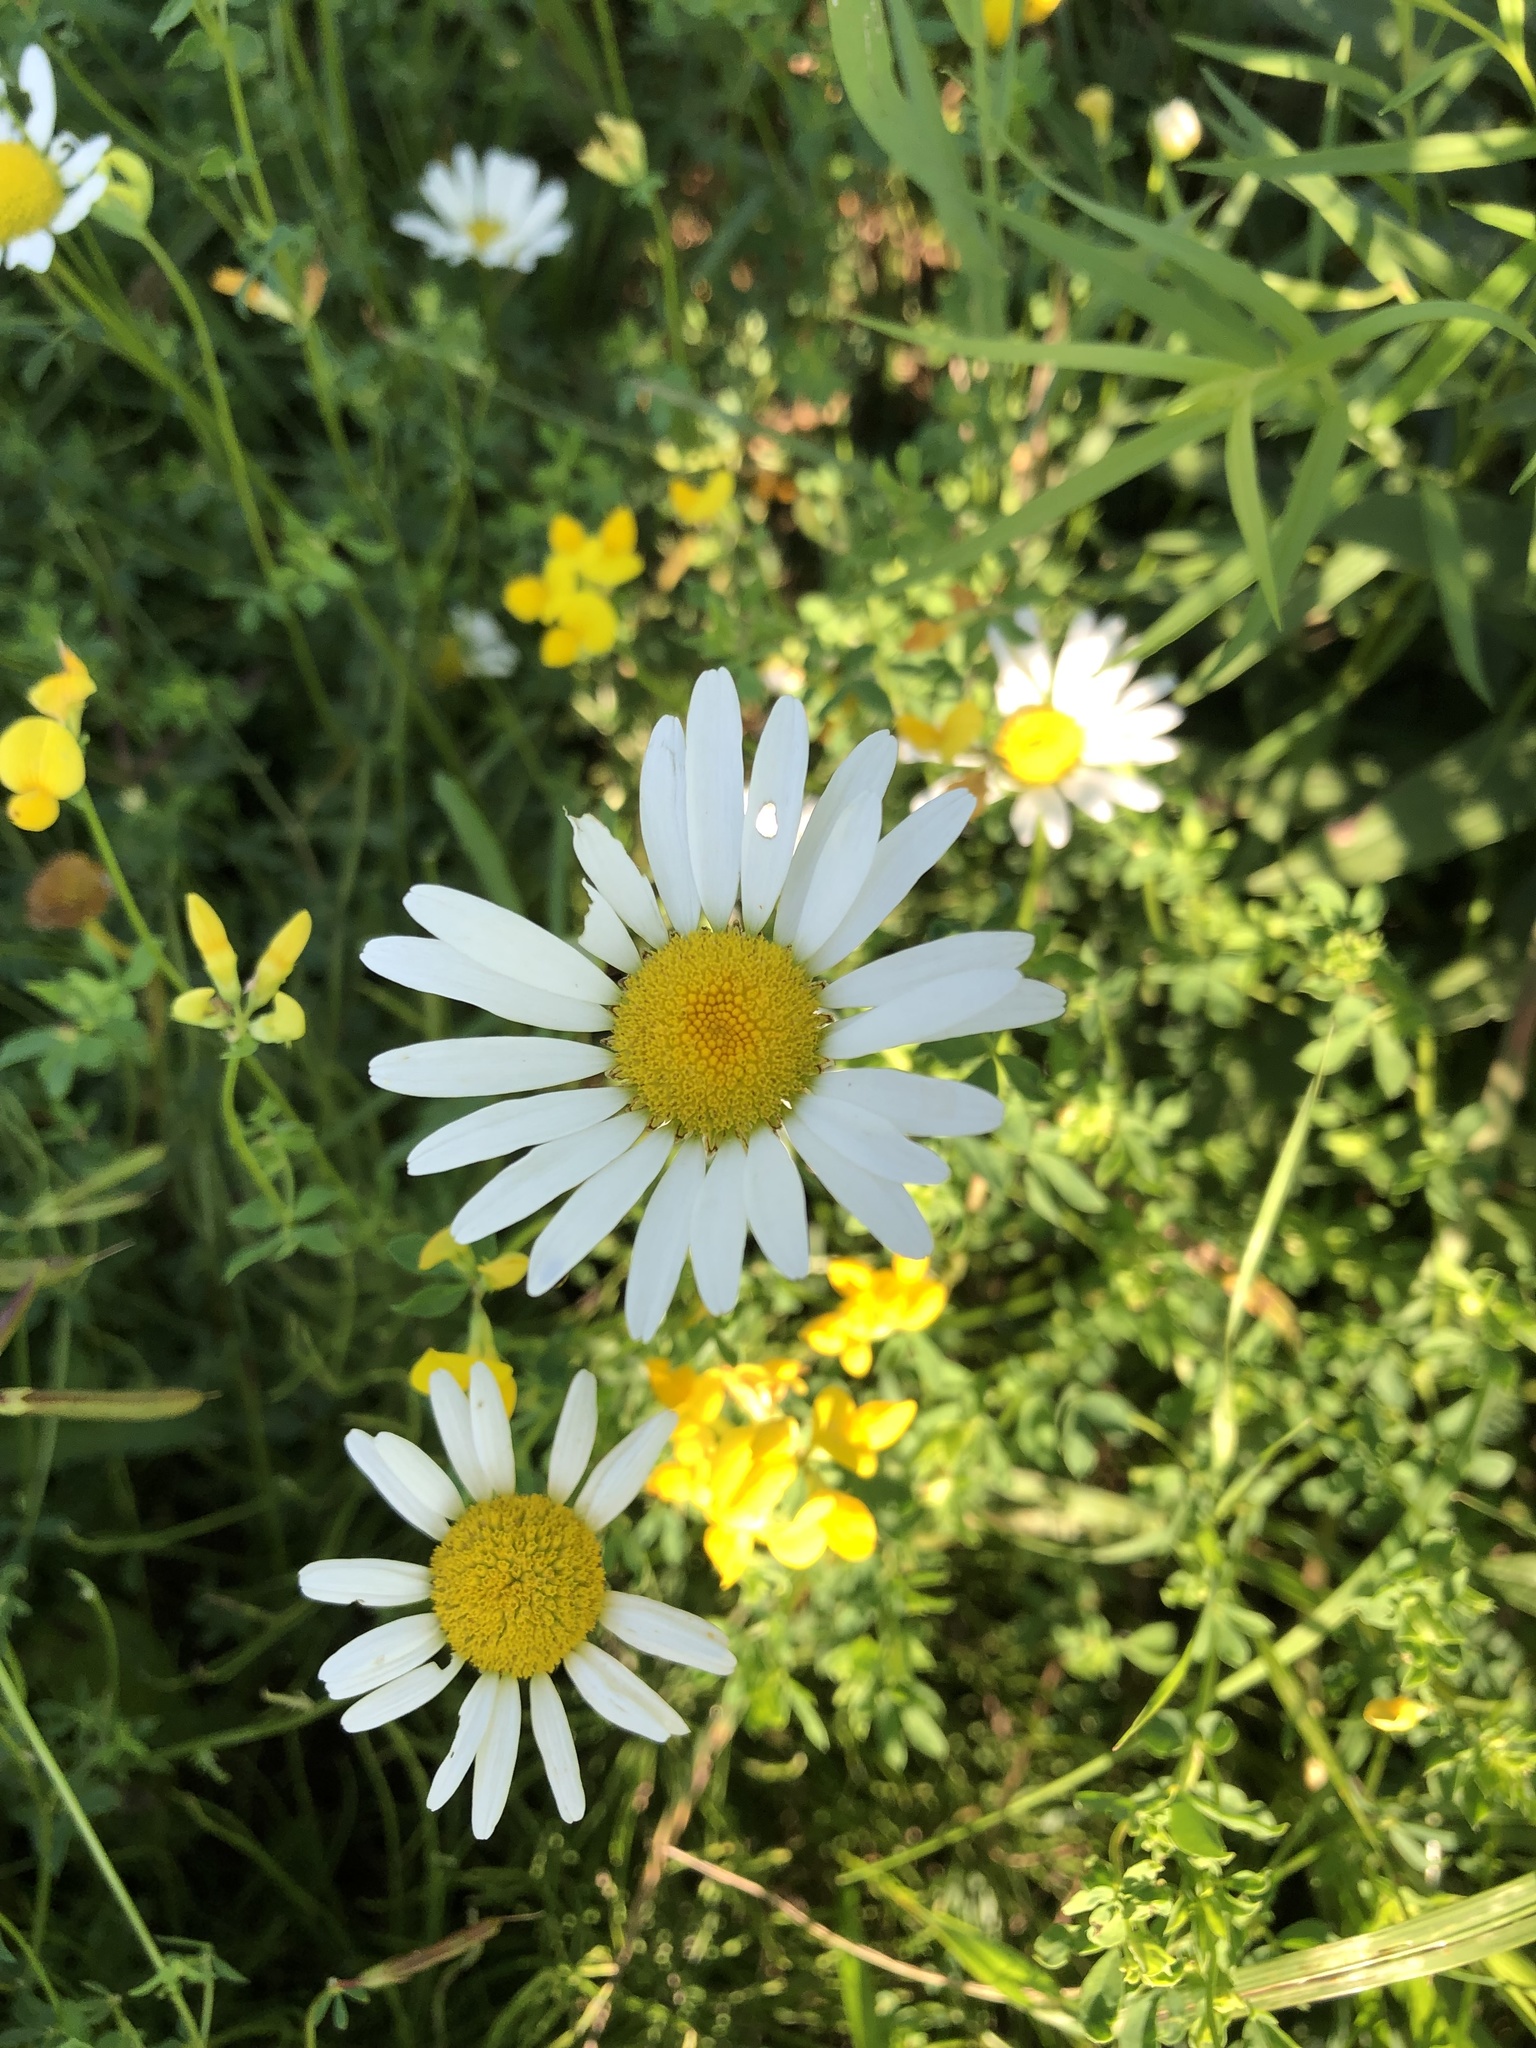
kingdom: Plantae
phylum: Tracheophyta
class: Magnoliopsida
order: Asterales
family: Asteraceae
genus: Leucanthemum
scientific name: Leucanthemum vulgare
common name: Oxeye daisy
